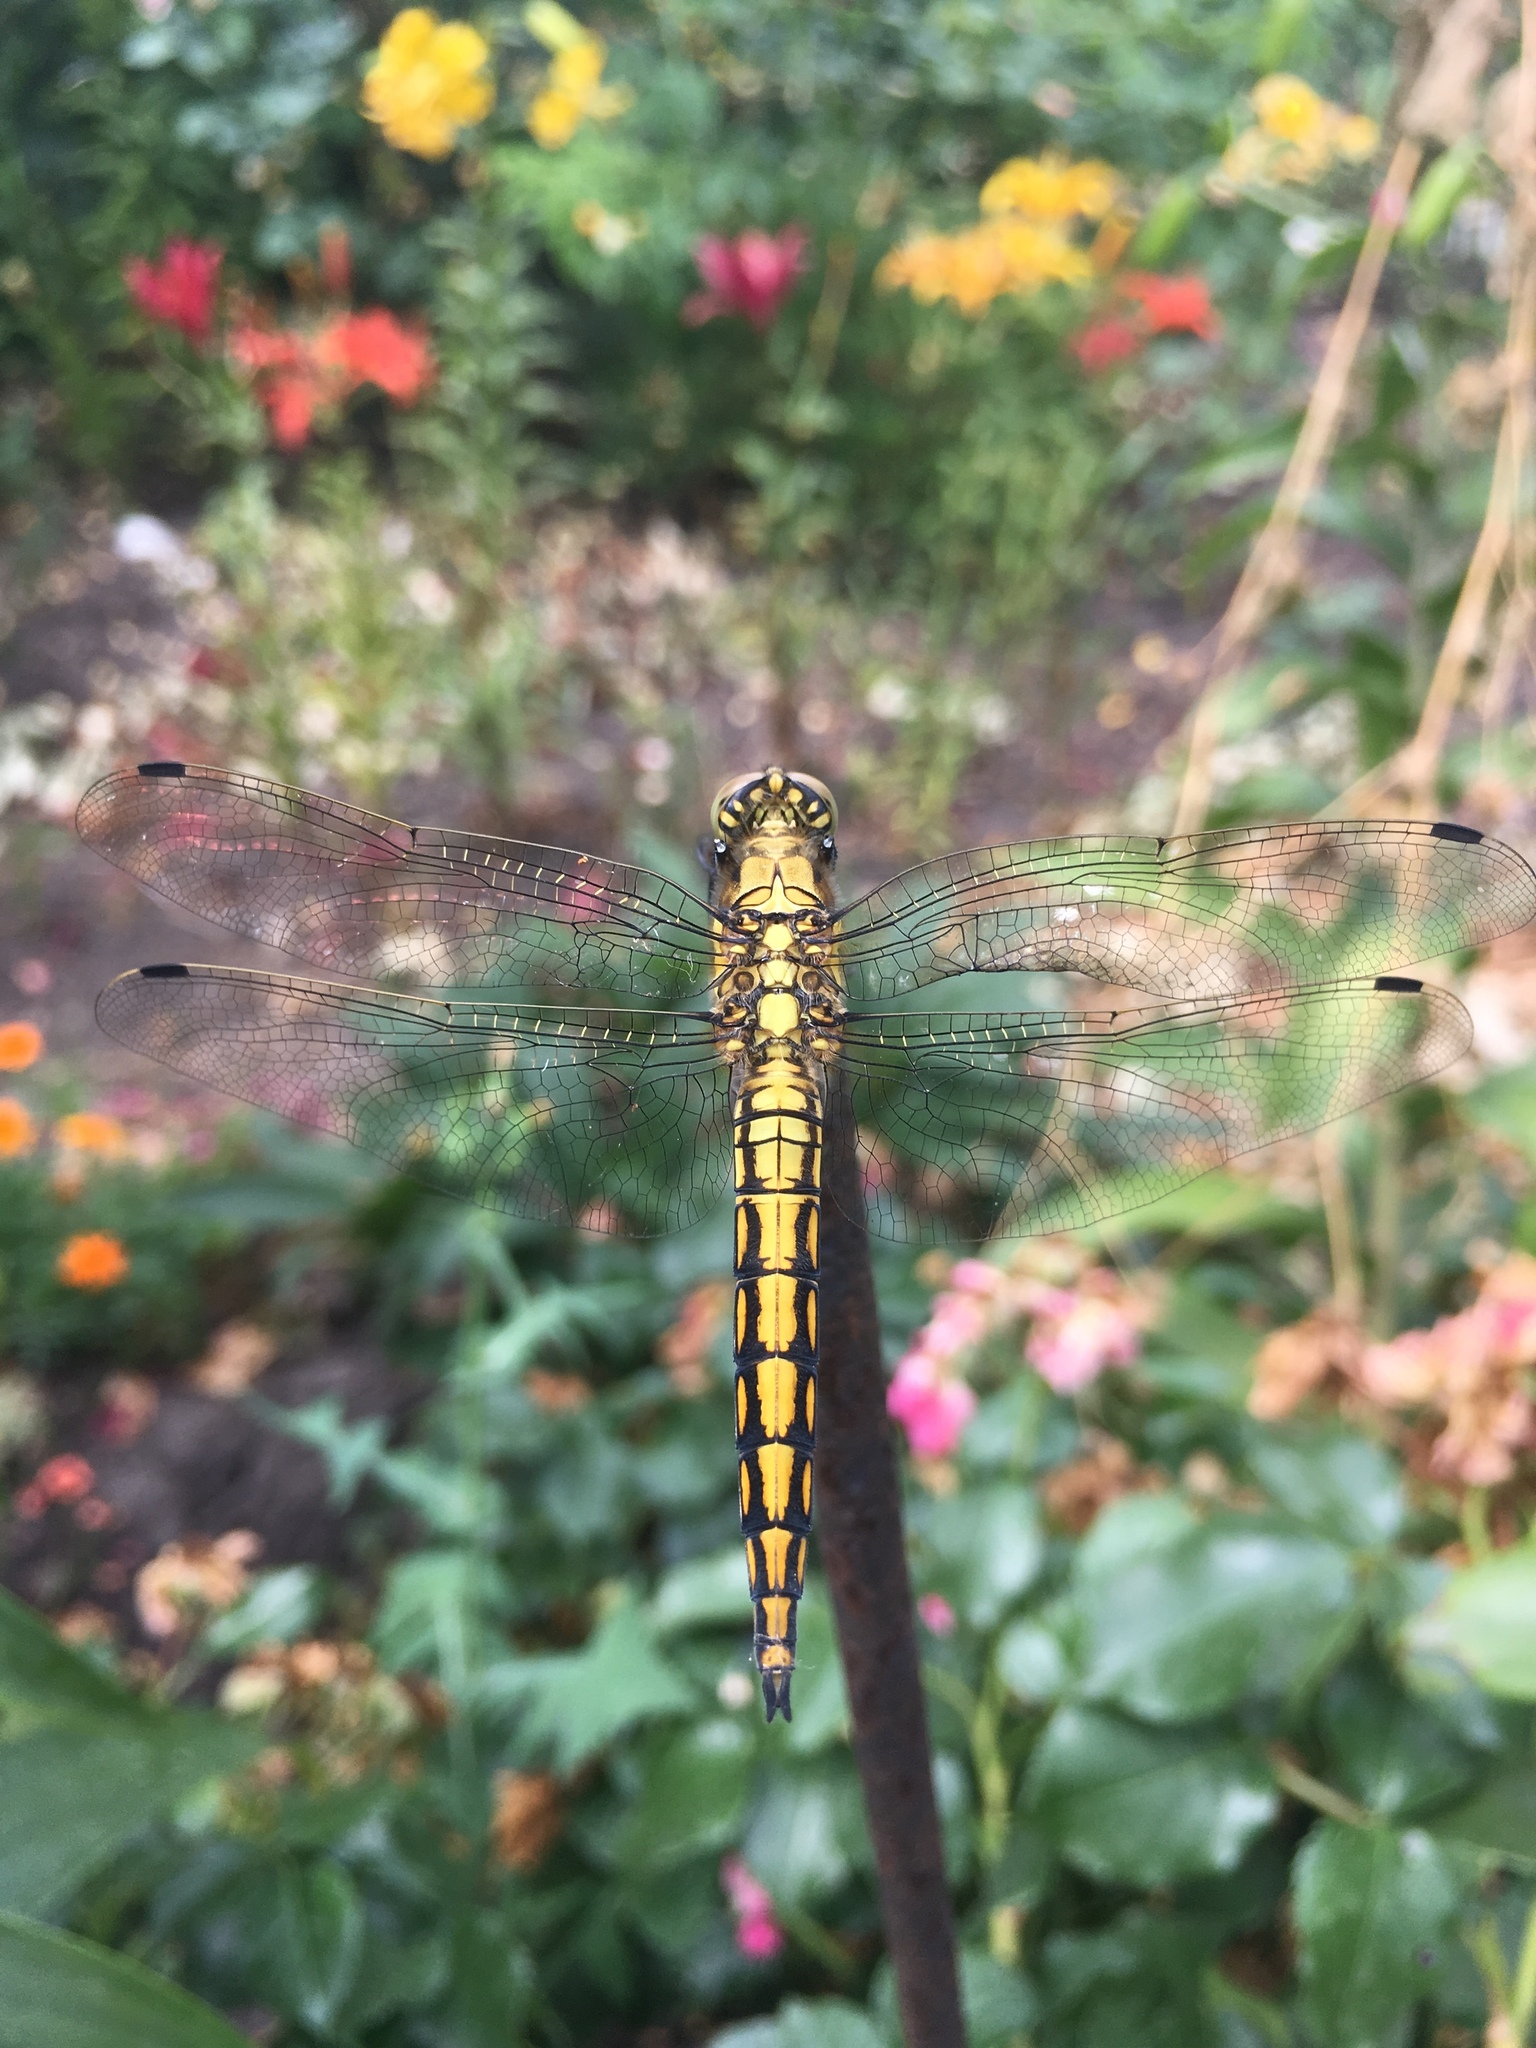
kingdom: Animalia
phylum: Arthropoda
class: Insecta
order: Odonata
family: Libellulidae
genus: Orthetrum
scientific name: Orthetrum cancellatum
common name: Black-tailed skimmer
